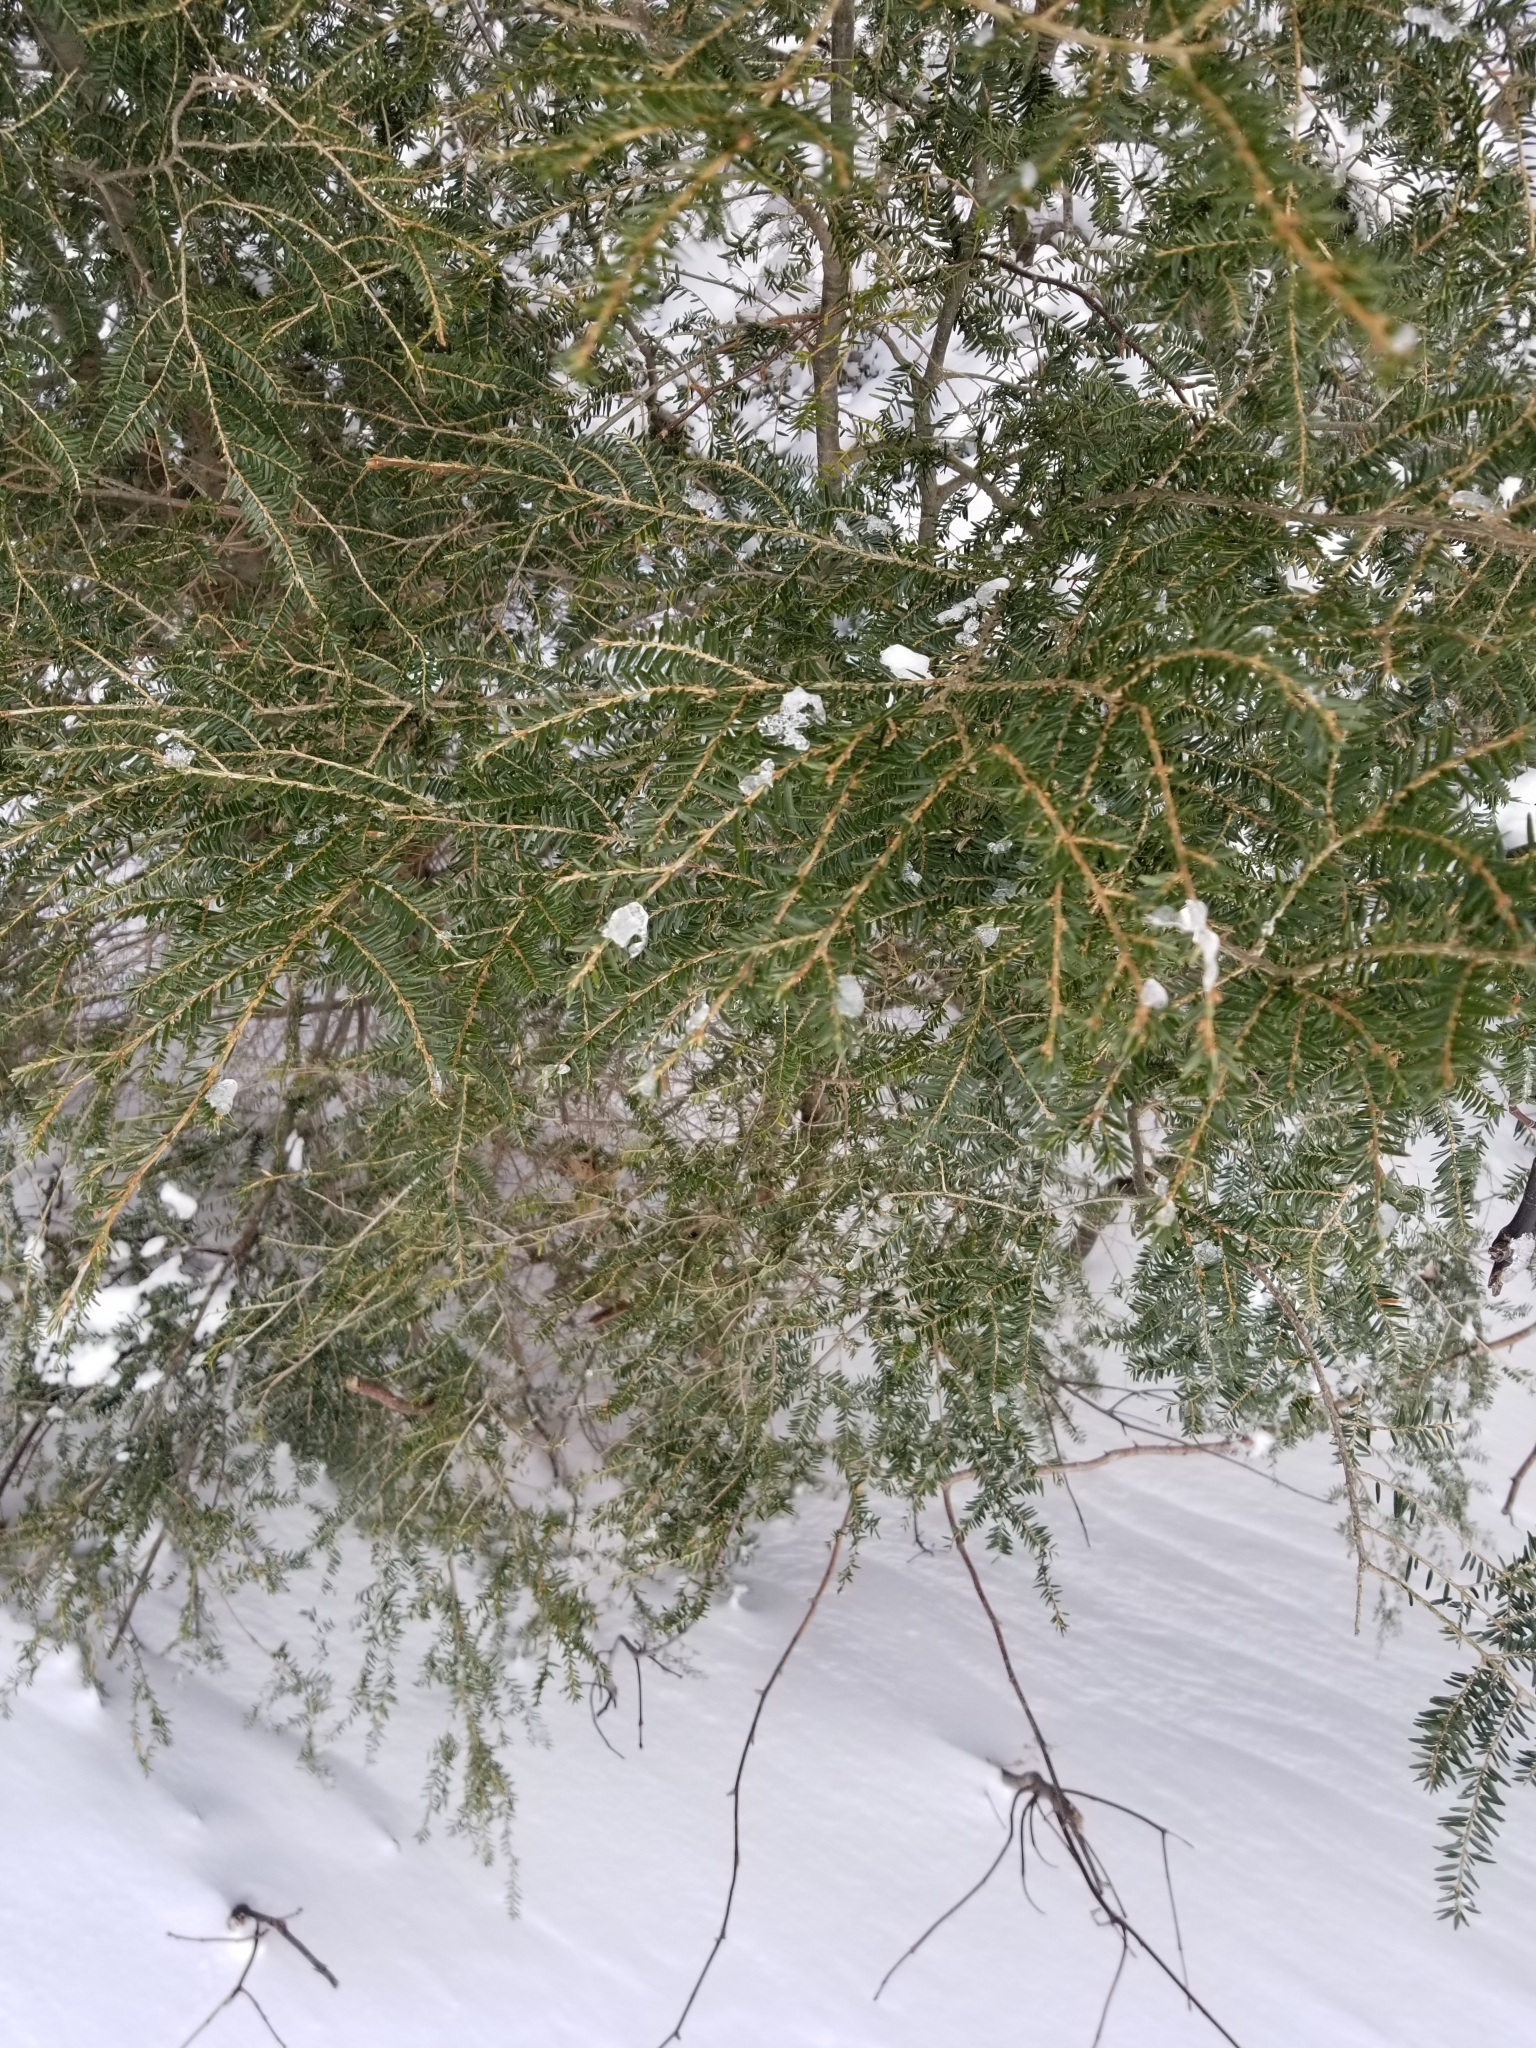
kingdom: Plantae
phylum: Tracheophyta
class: Pinopsida
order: Pinales
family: Pinaceae
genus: Tsuga
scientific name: Tsuga canadensis
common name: Eastern hemlock
